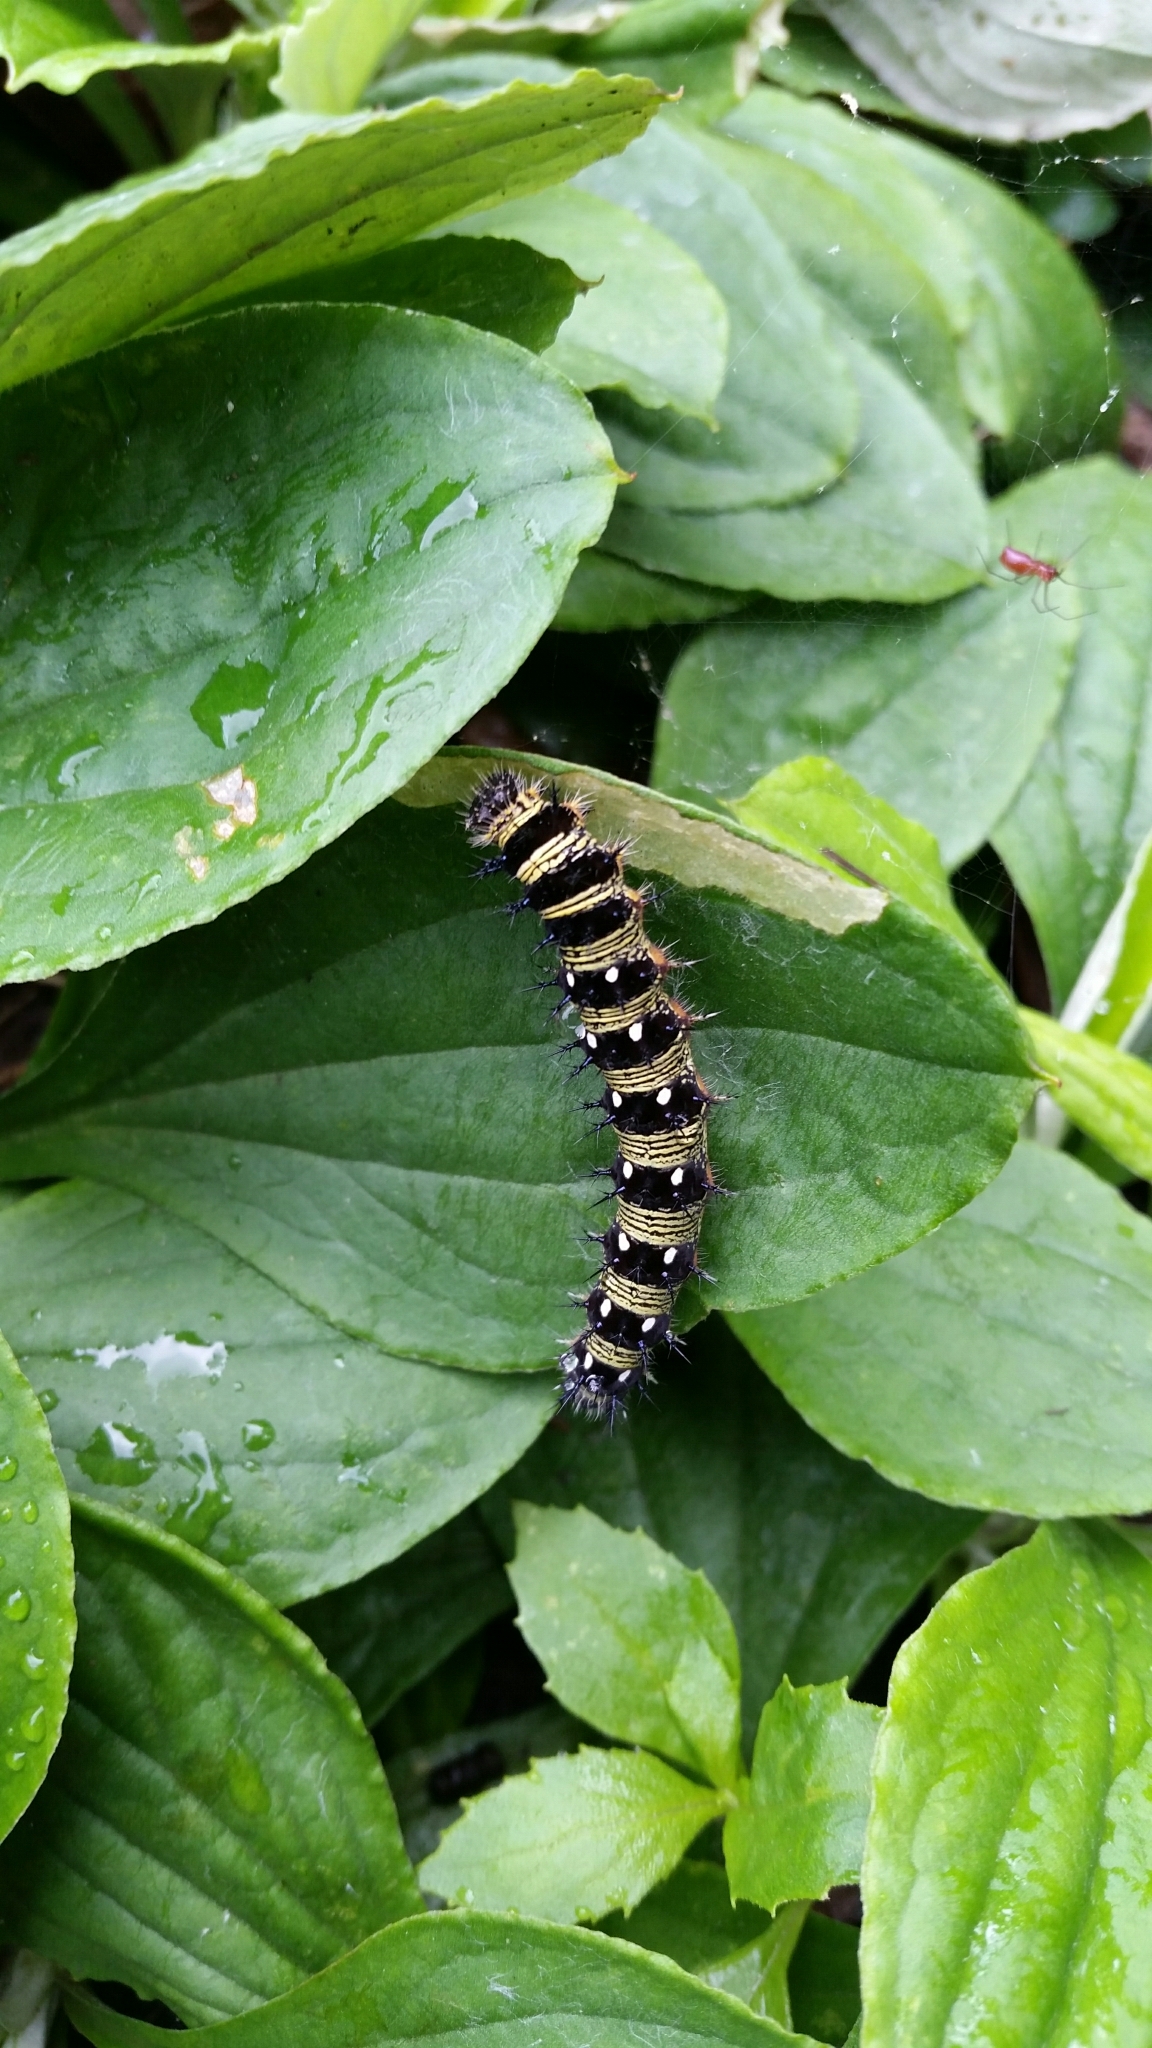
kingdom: Animalia
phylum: Arthropoda
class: Insecta
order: Lepidoptera
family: Nymphalidae
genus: Vanessa
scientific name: Vanessa virginiensis
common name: American lady
